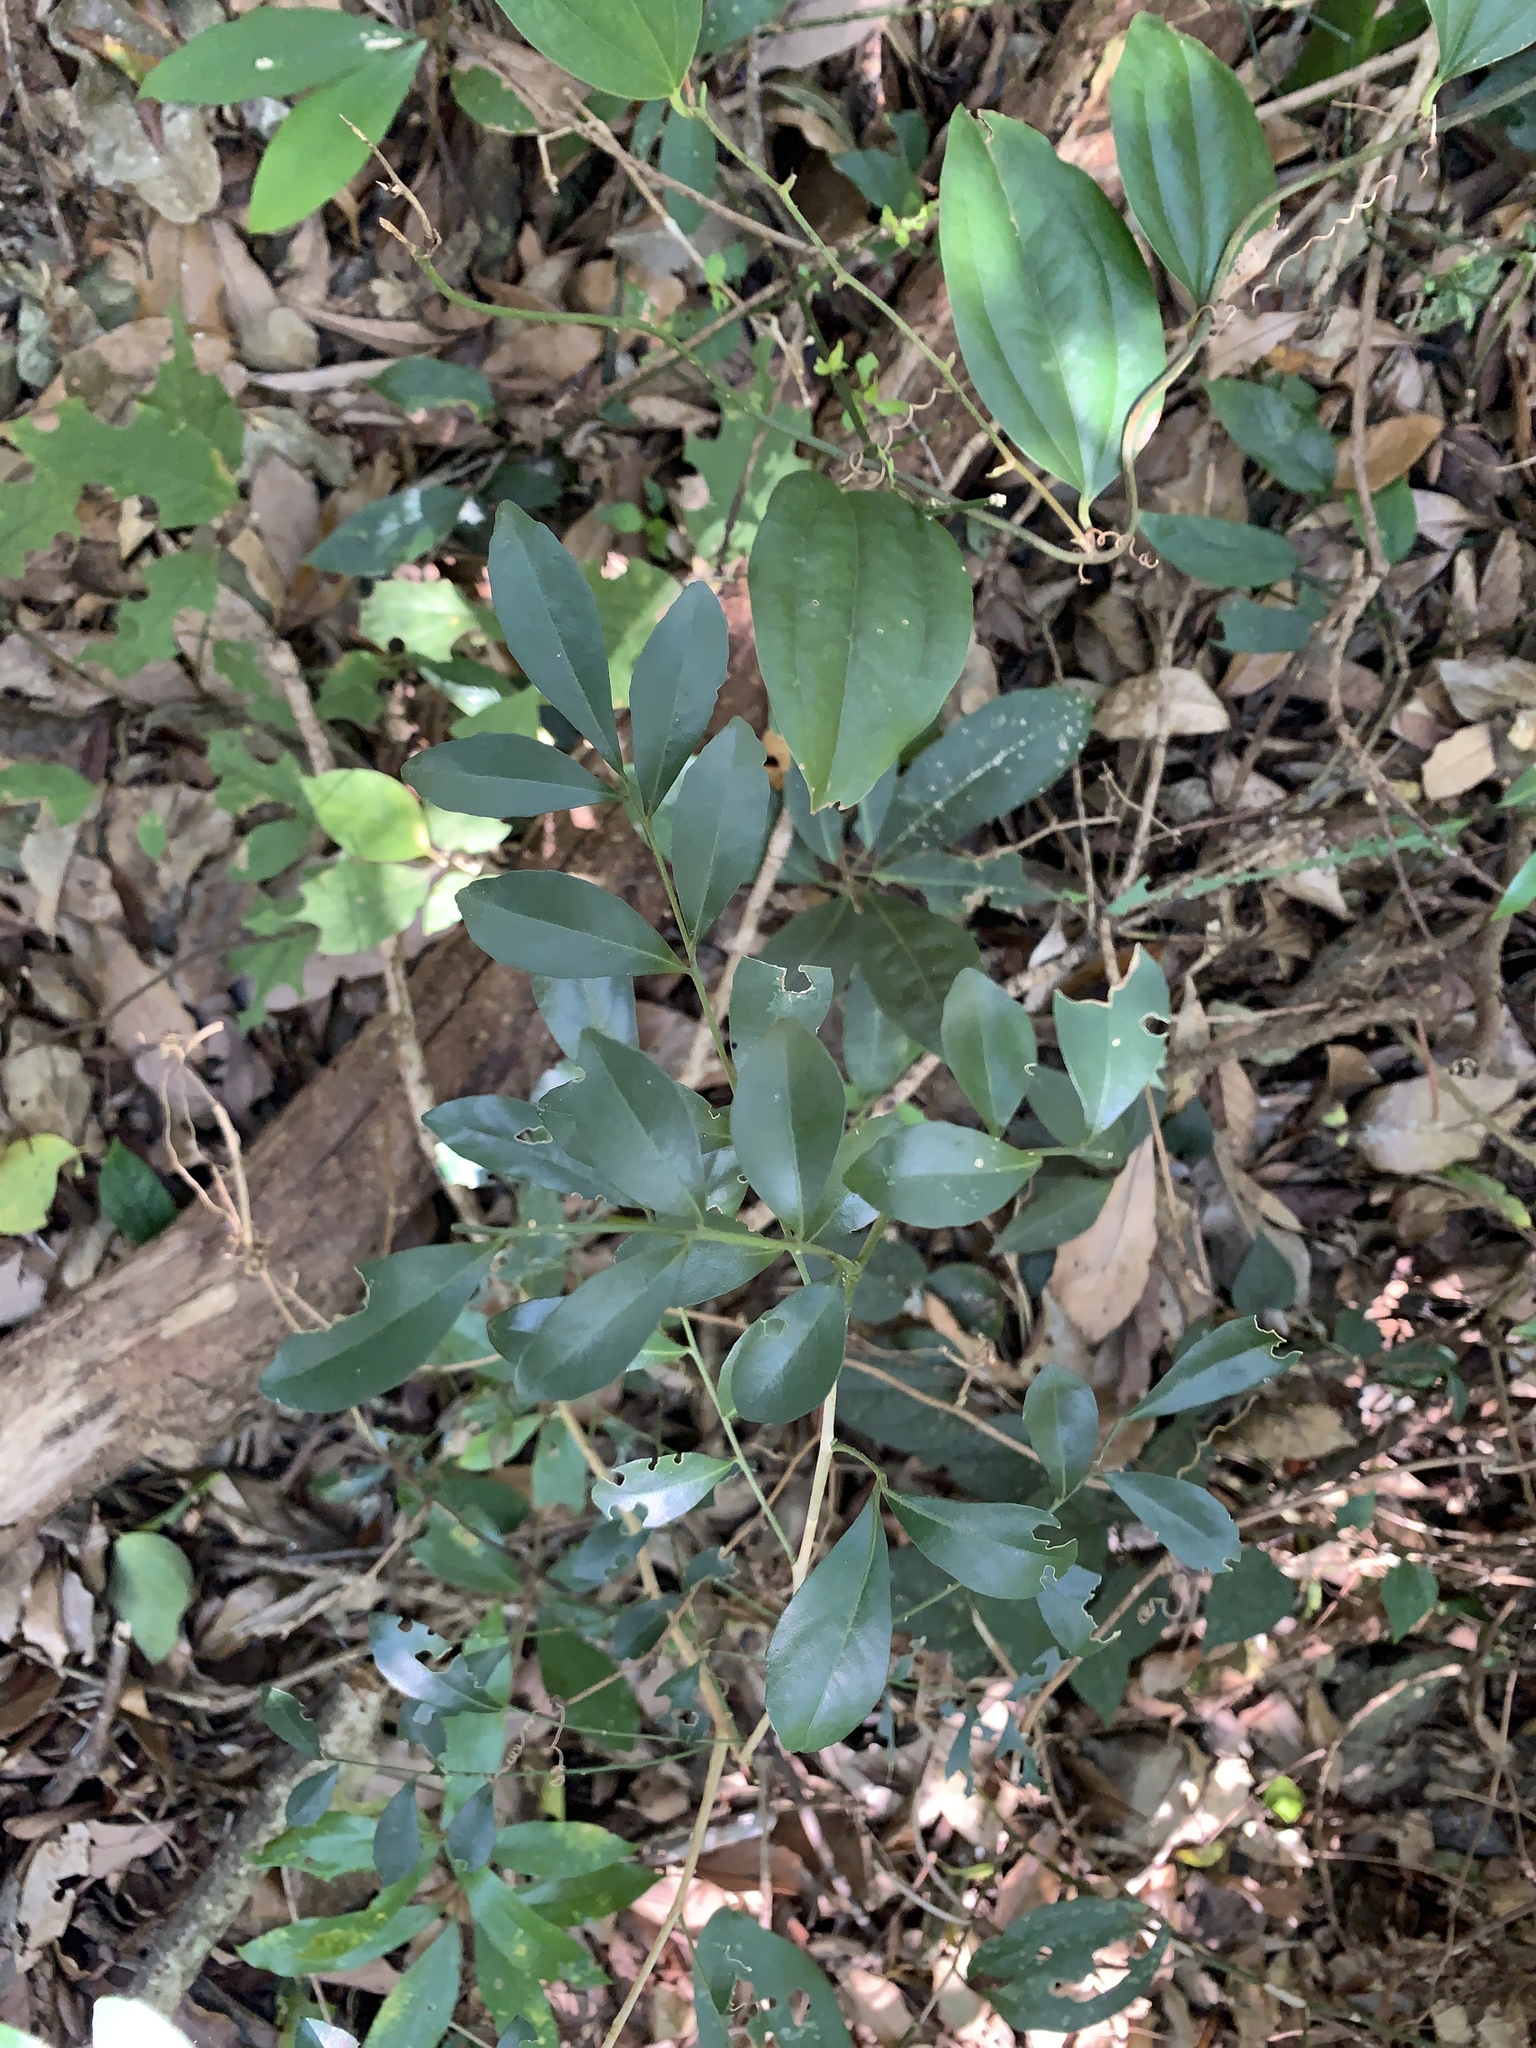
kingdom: Plantae
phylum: Tracheophyta
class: Magnoliopsida
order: Sapindales
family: Rutaceae
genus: Murraya
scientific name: Murraya paniculata
